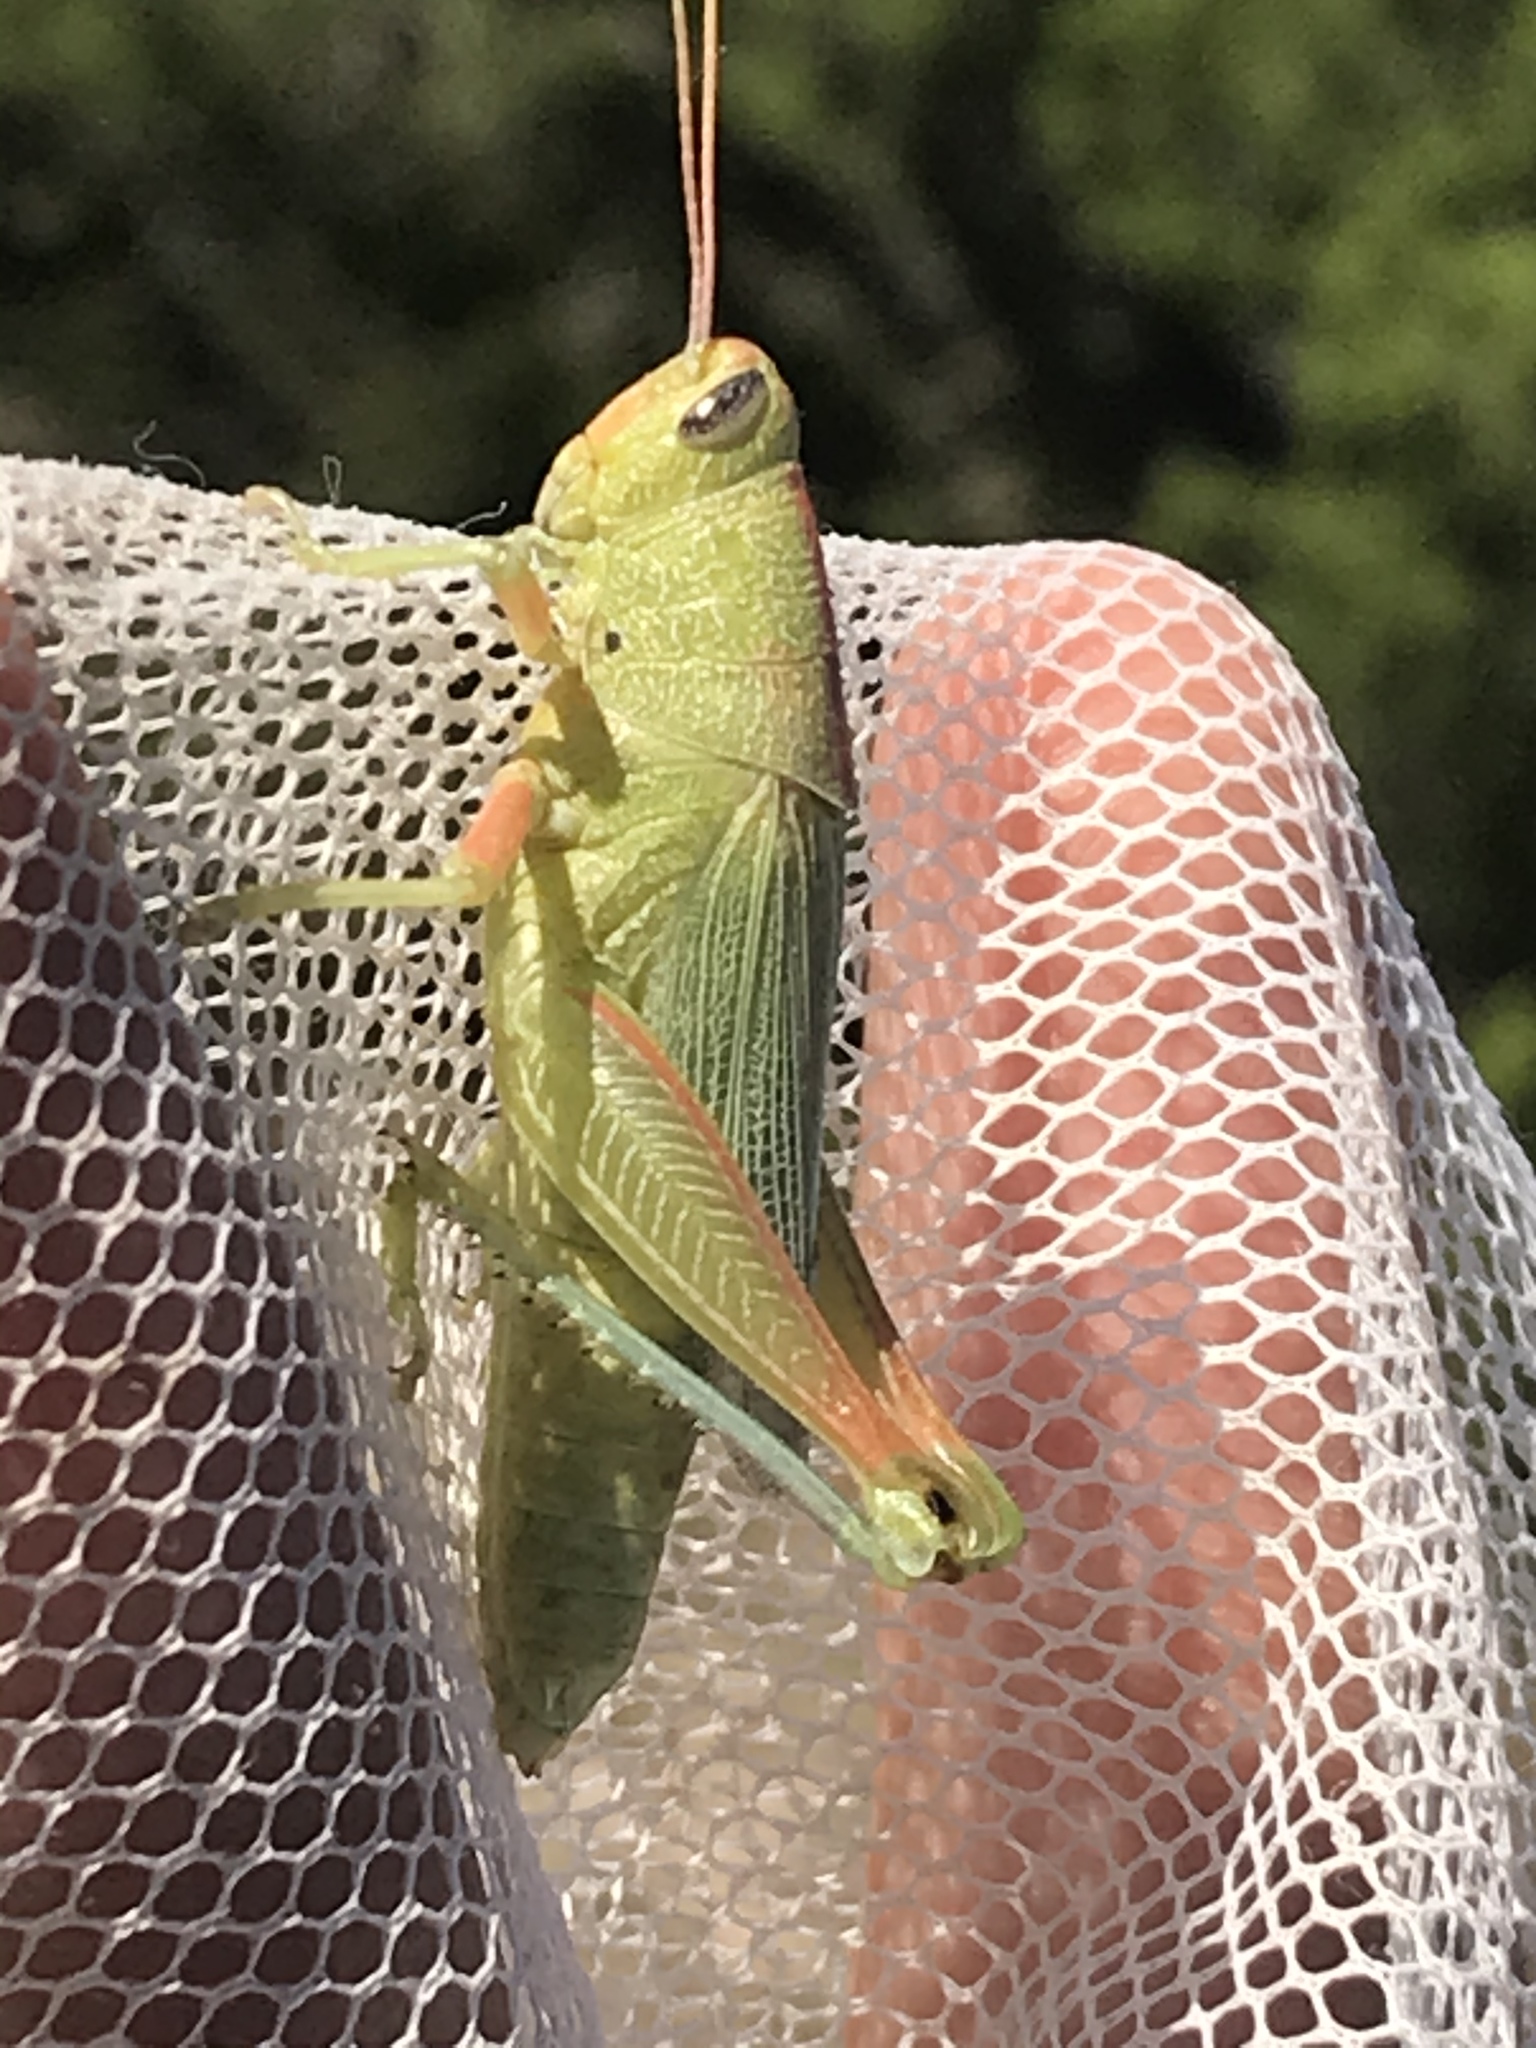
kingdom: Animalia
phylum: Arthropoda
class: Insecta
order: Orthoptera
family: Acrididae
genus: Hesperotettix
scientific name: Hesperotettix speciosus
